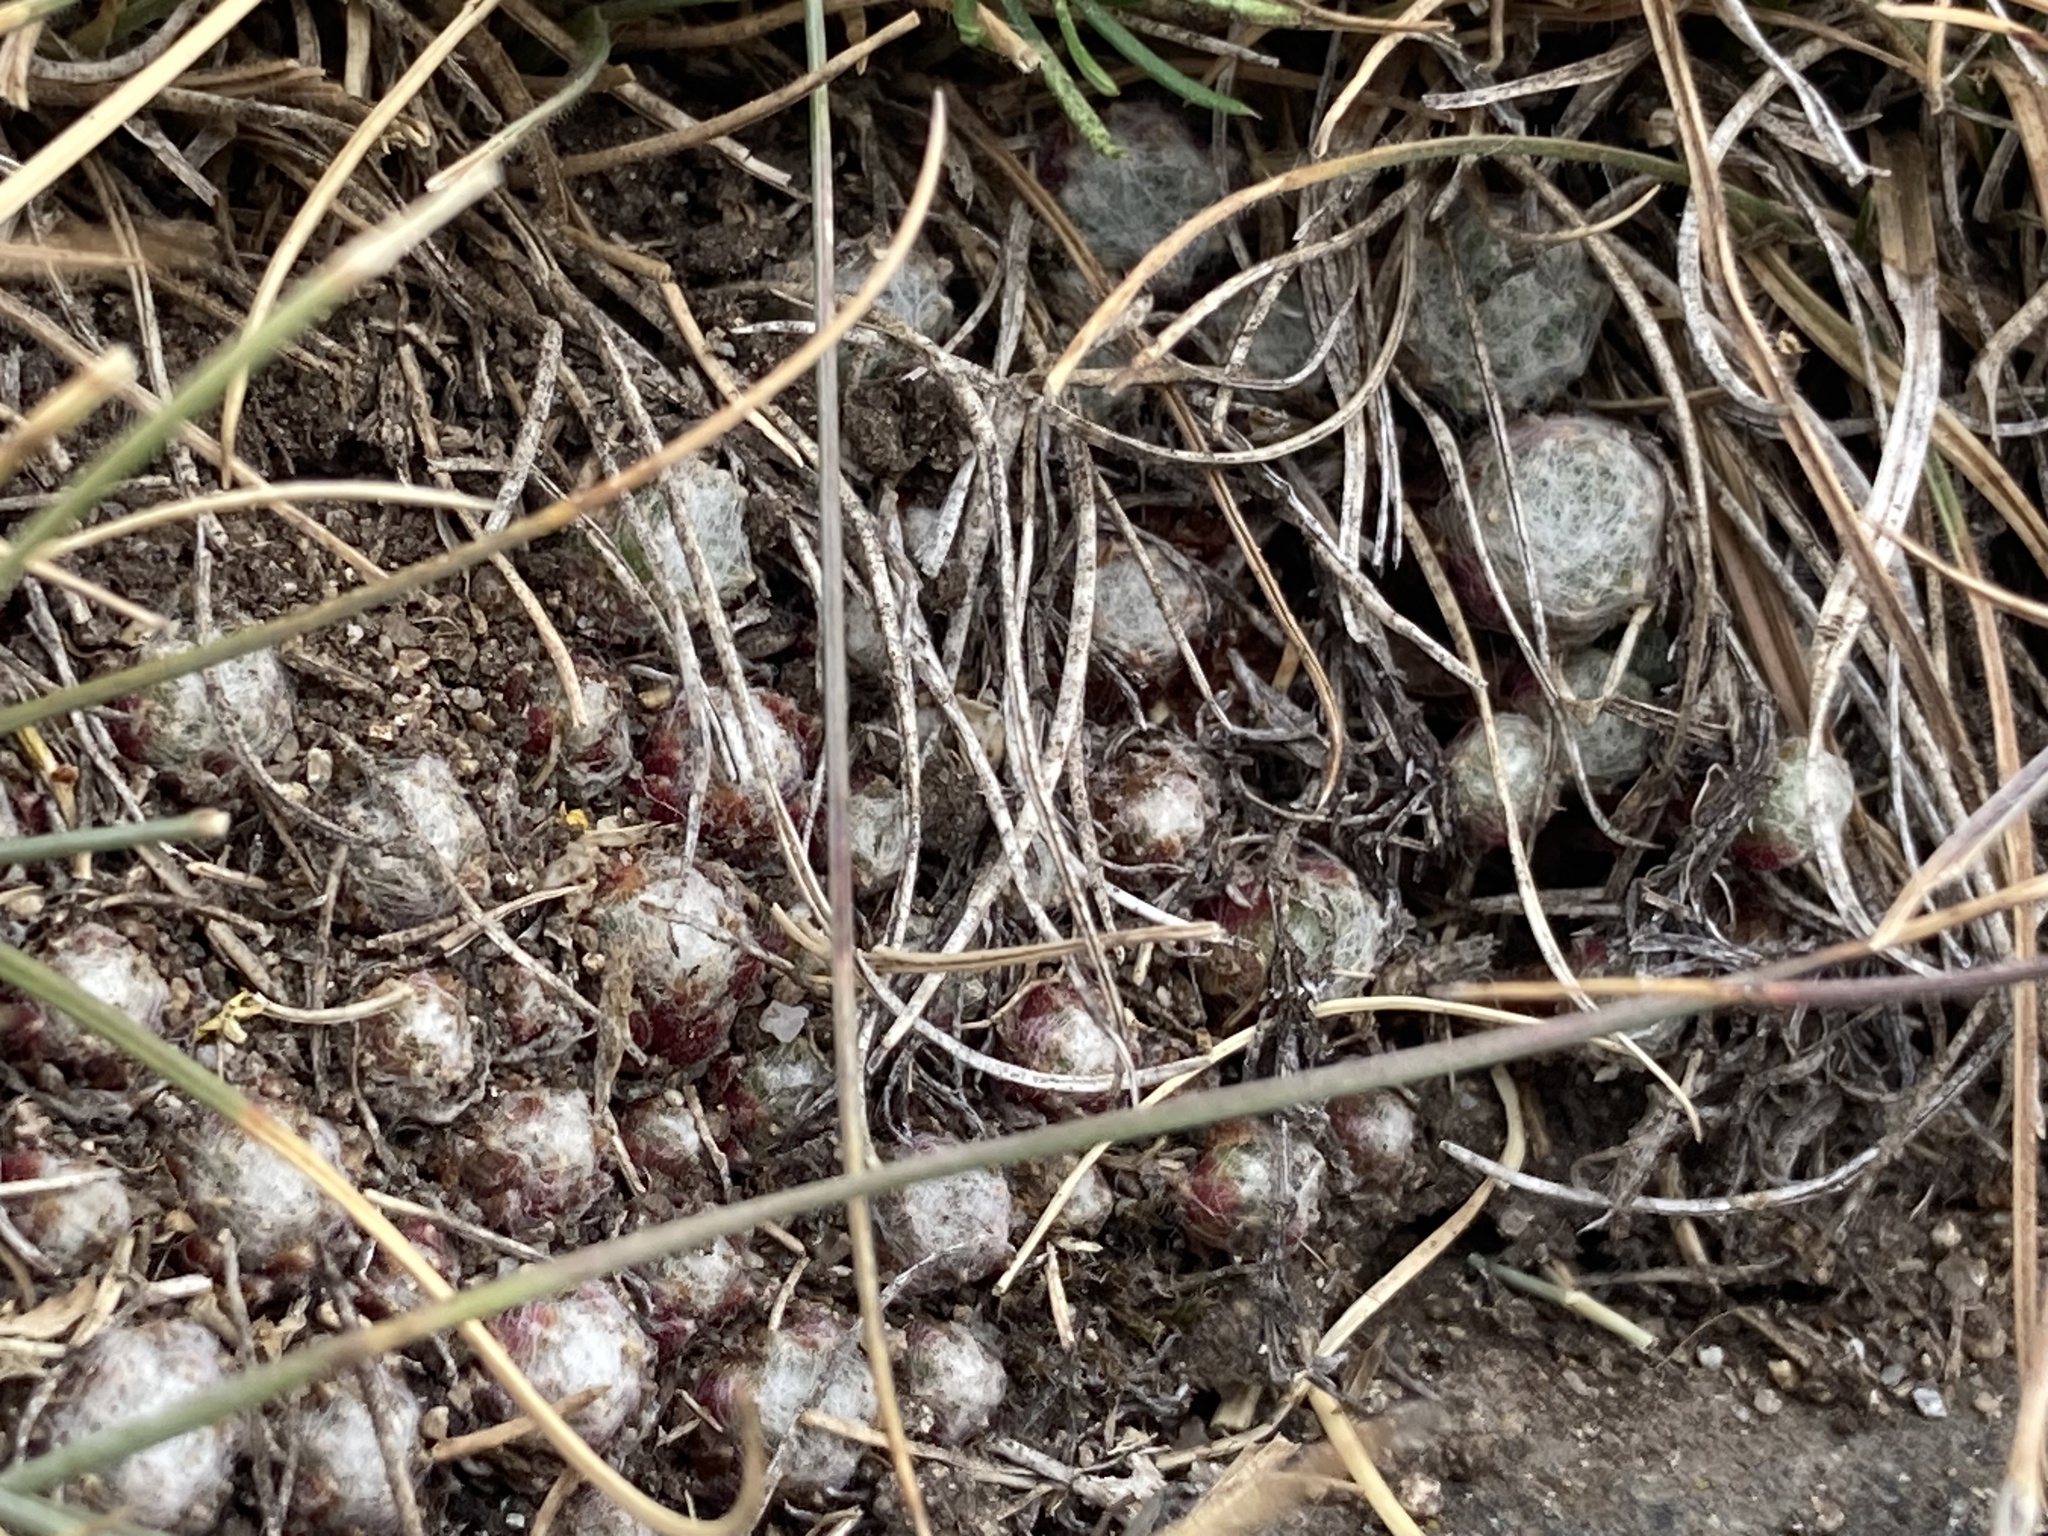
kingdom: Plantae
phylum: Tracheophyta
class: Magnoliopsida
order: Saxifragales
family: Crassulaceae
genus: Sempervivum
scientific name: Sempervivum arachnoideum
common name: Cobweb house-leek
